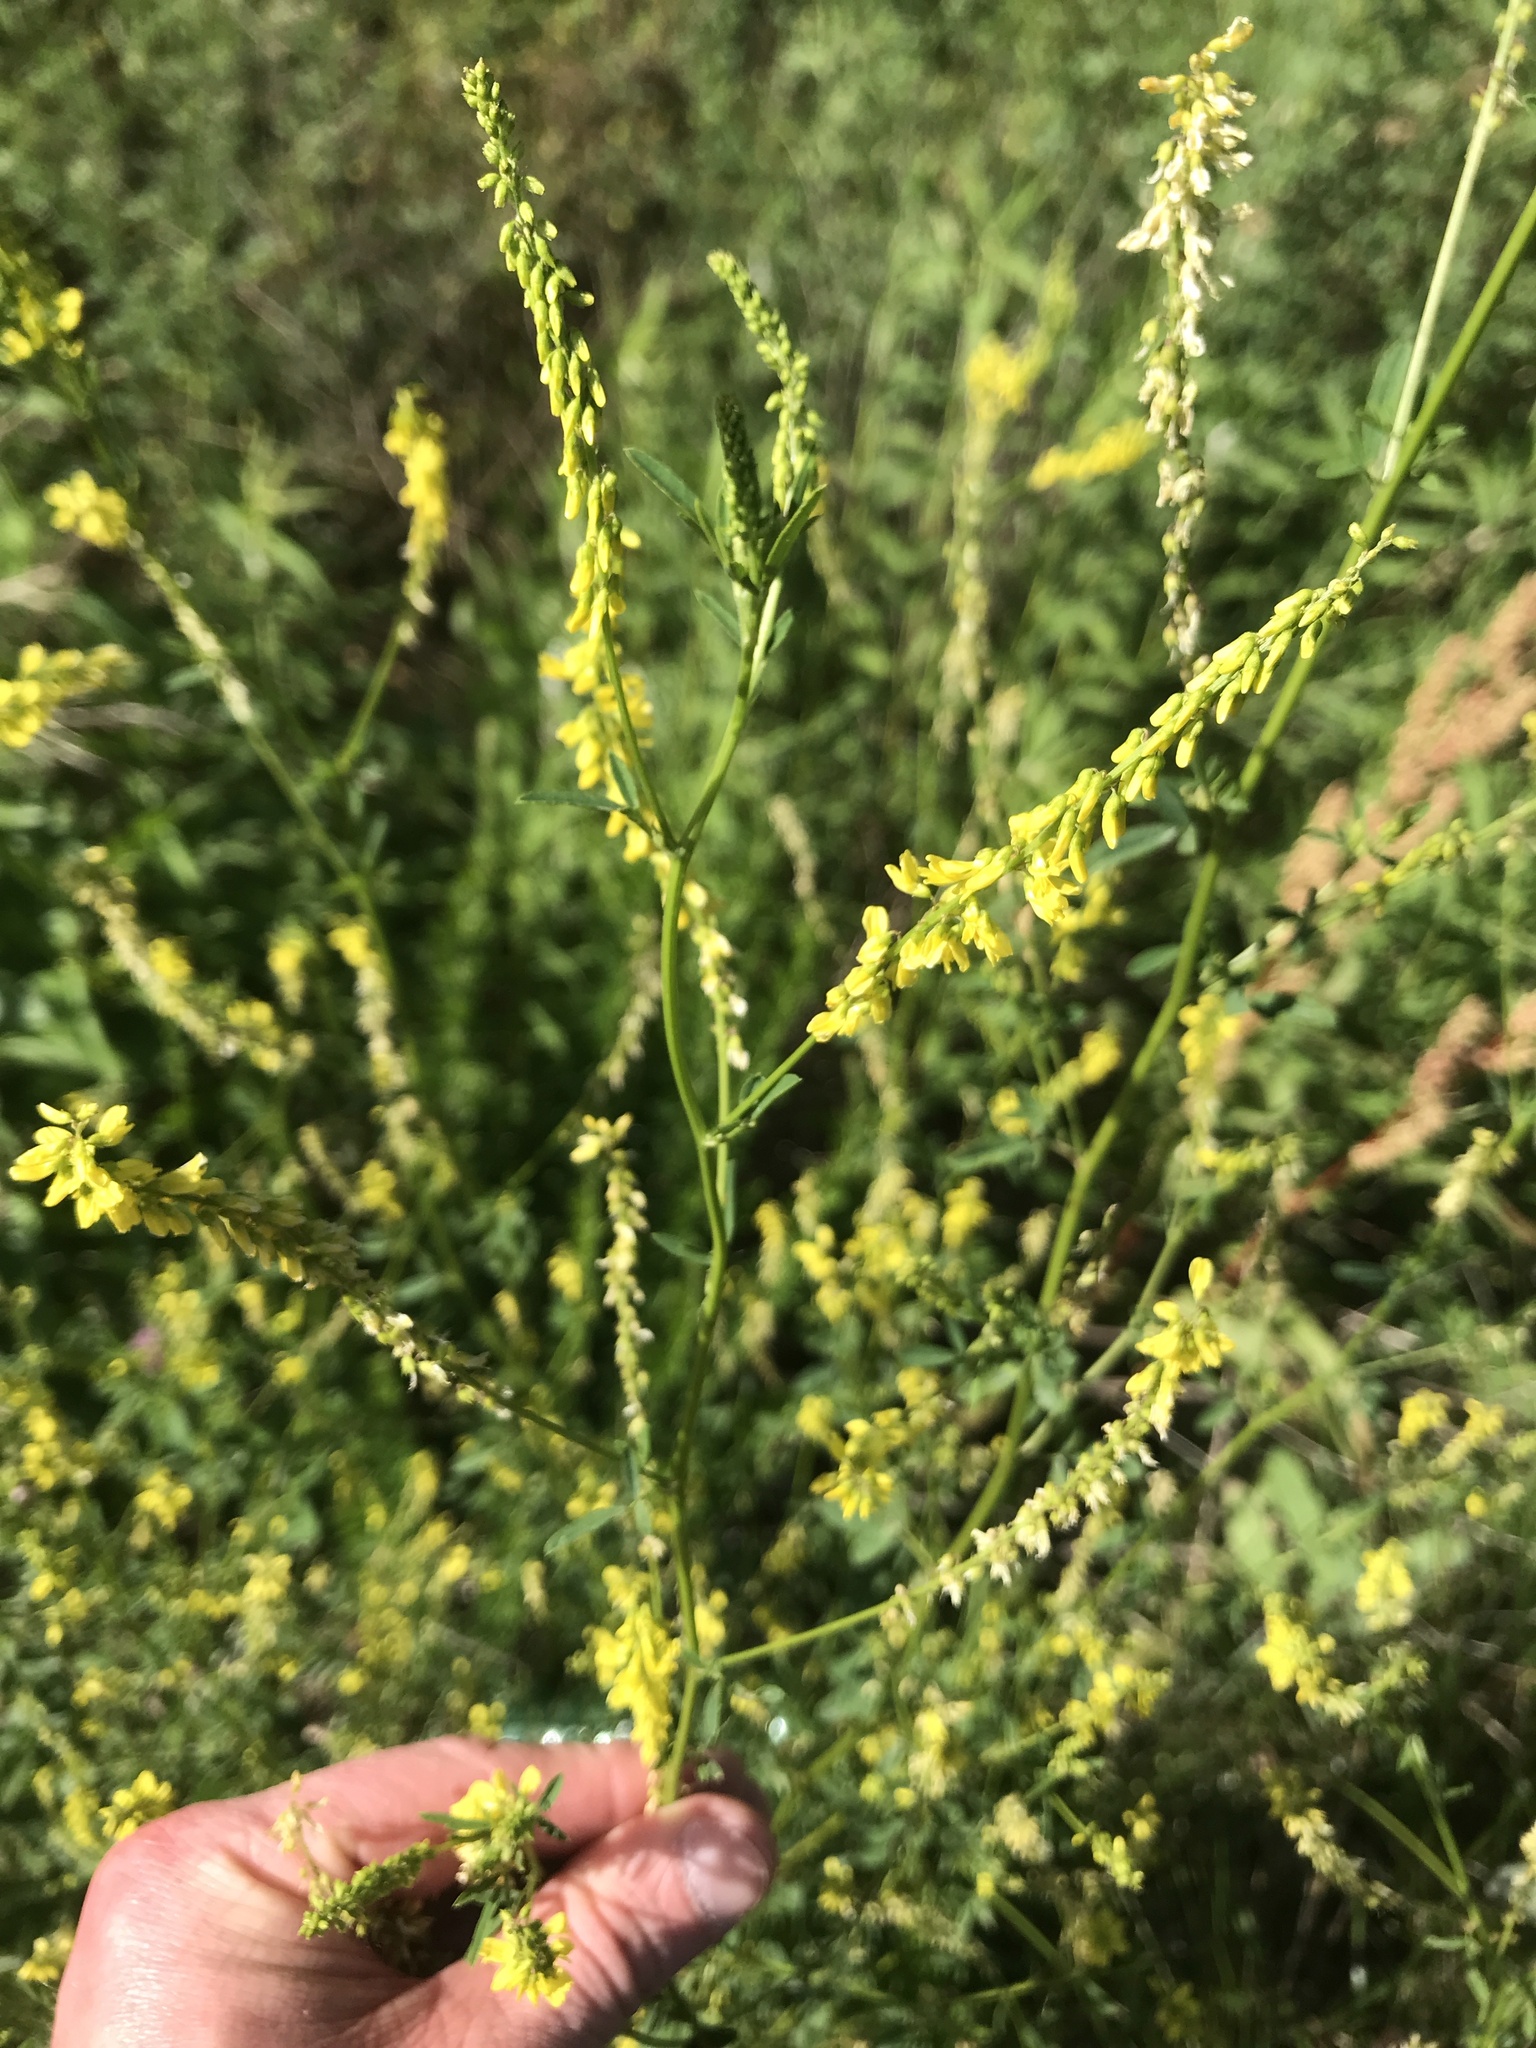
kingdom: Plantae
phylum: Tracheophyta
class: Magnoliopsida
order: Fabales
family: Fabaceae
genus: Melilotus
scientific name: Melilotus officinalis
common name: Sweetclover
